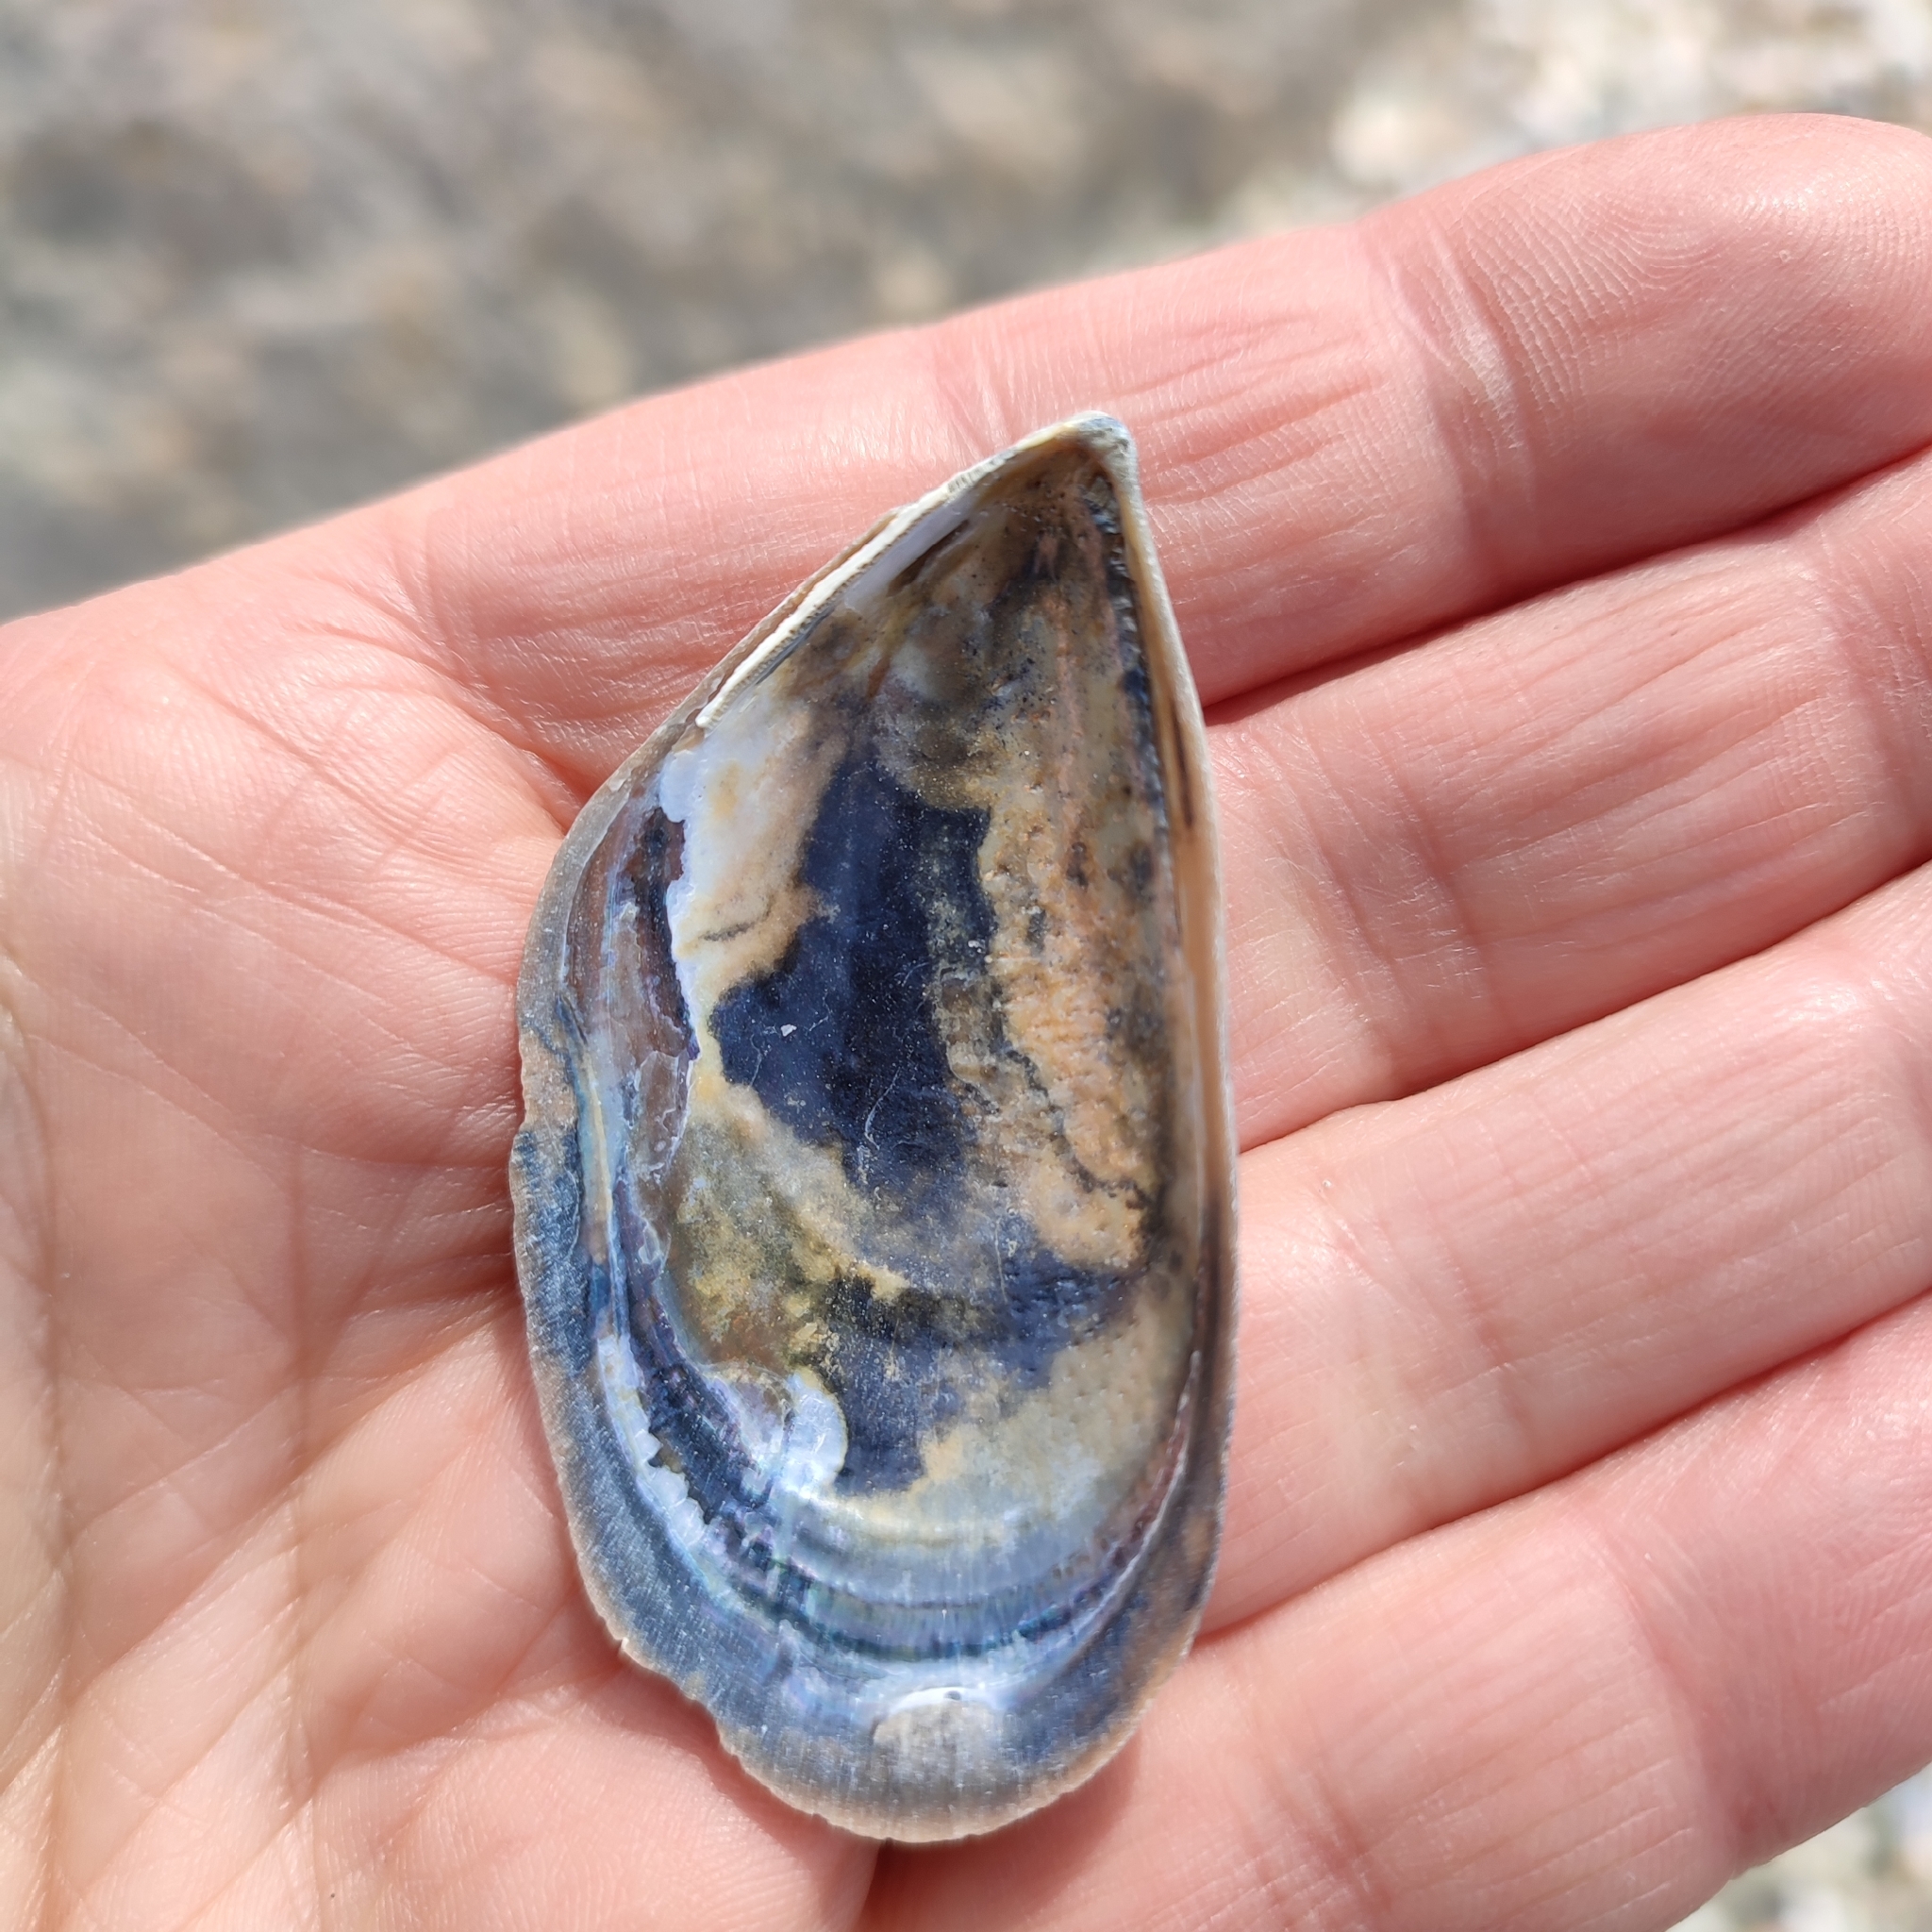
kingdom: Animalia
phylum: Mollusca
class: Bivalvia
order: Mytilida
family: Mytilidae
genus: Mytilus
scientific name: Mytilus galloprovincialis
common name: Mediterranean mussel
